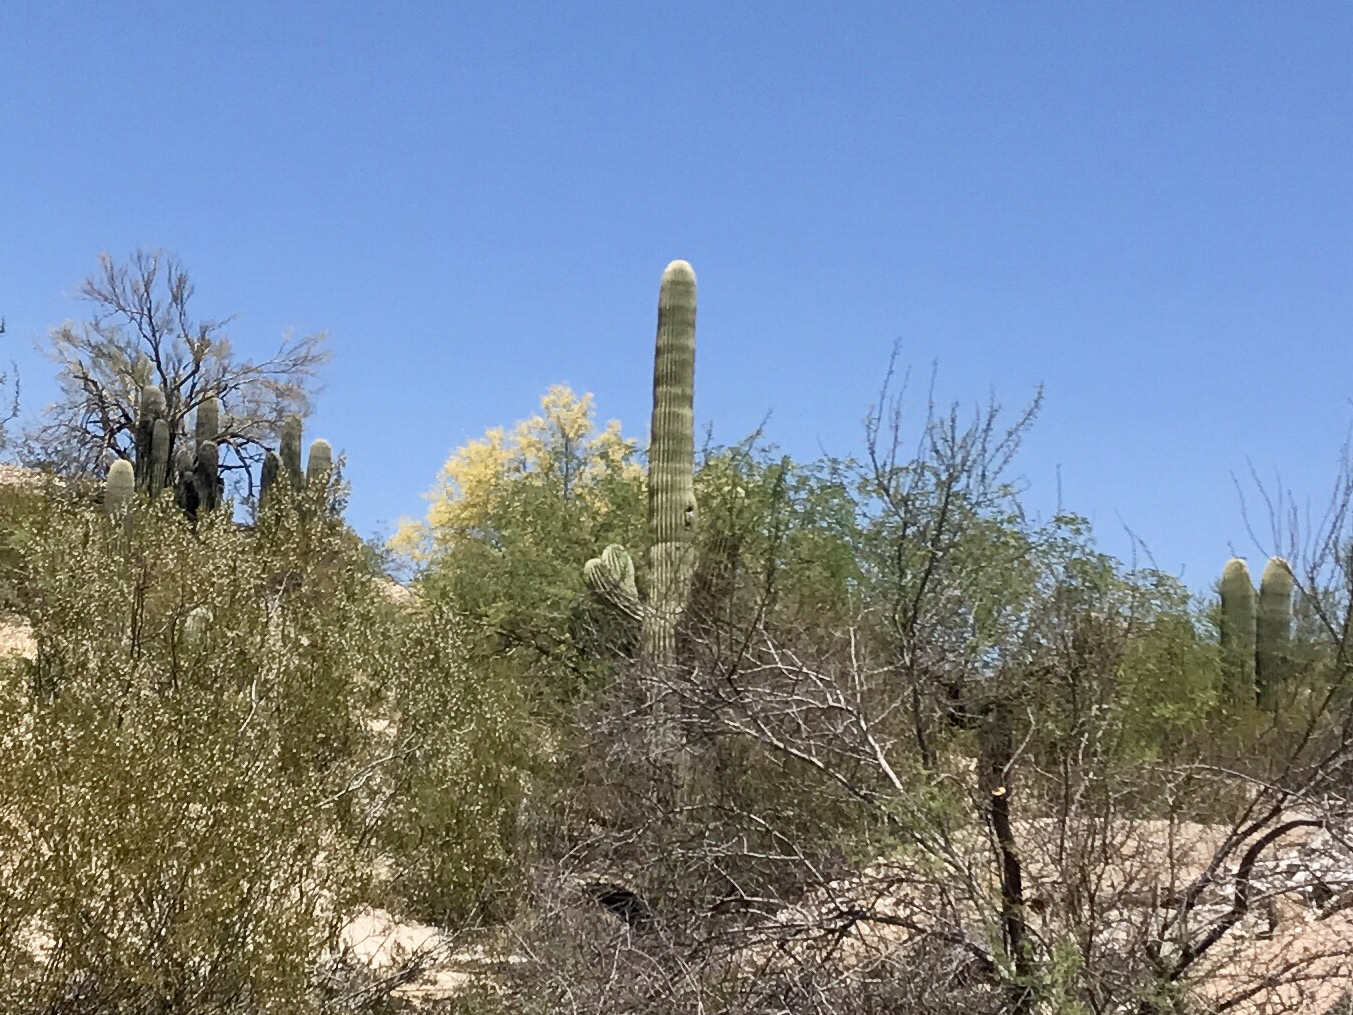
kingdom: Plantae
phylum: Tracheophyta
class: Magnoliopsida
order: Caryophyllales
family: Cactaceae
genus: Carnegiea
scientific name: Carnegiea gigantea
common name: Saguaro
